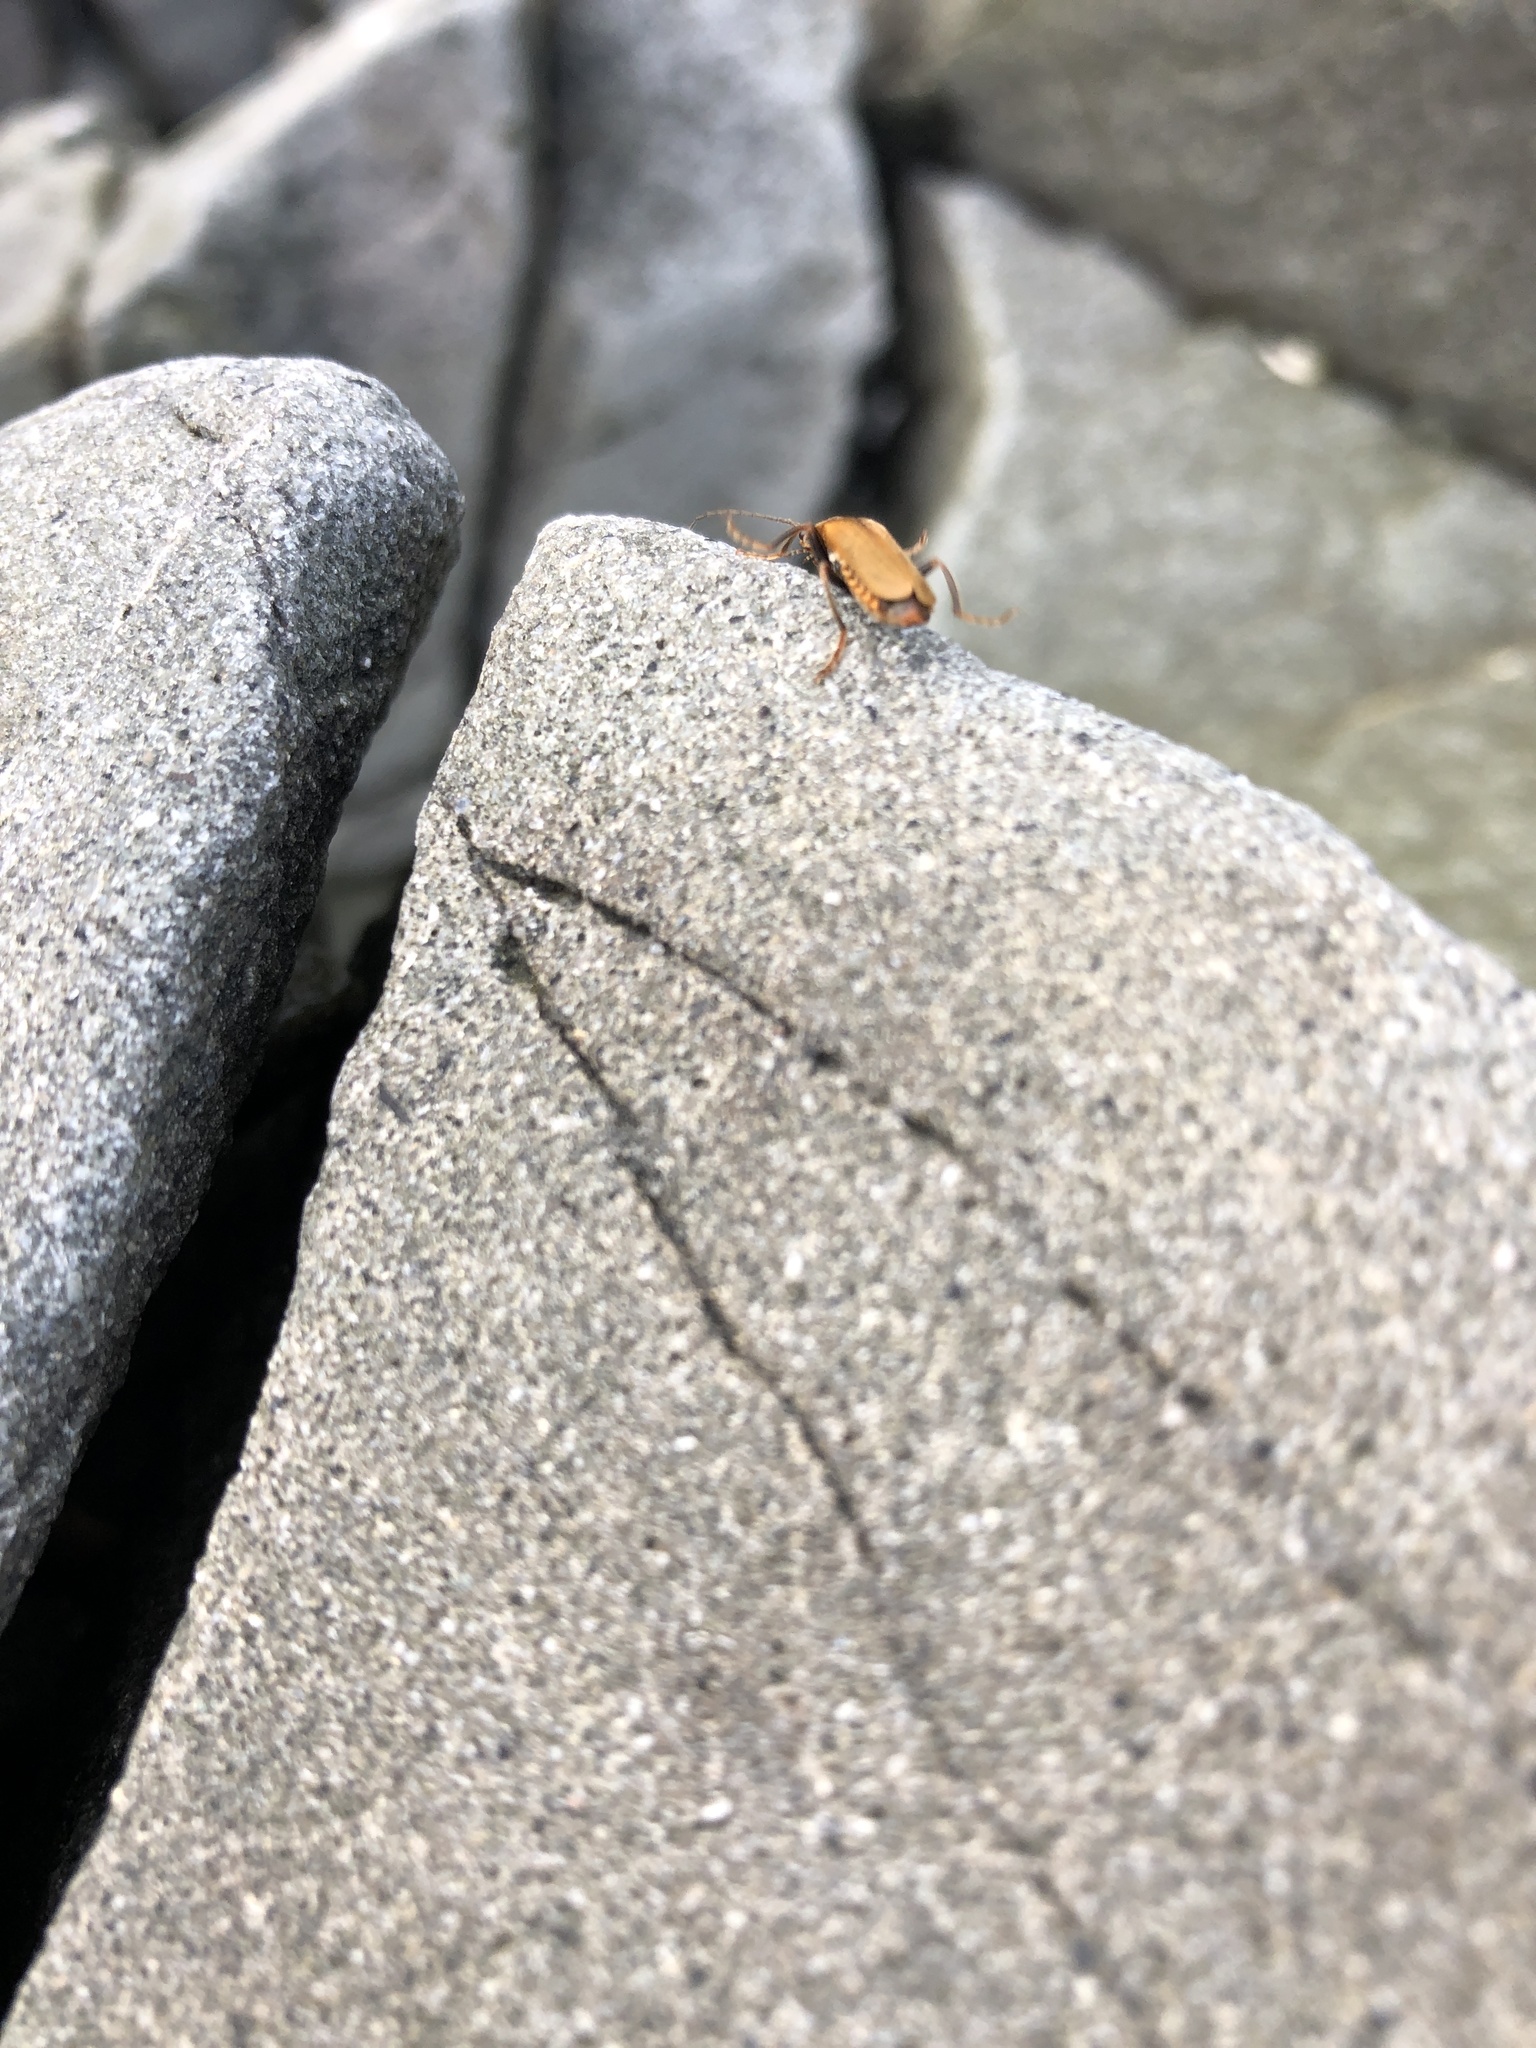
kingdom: Animalia
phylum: Arthropoda
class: Insecta
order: Coleoptera
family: Cantharidae
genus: Cantharis
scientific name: Cantharis
